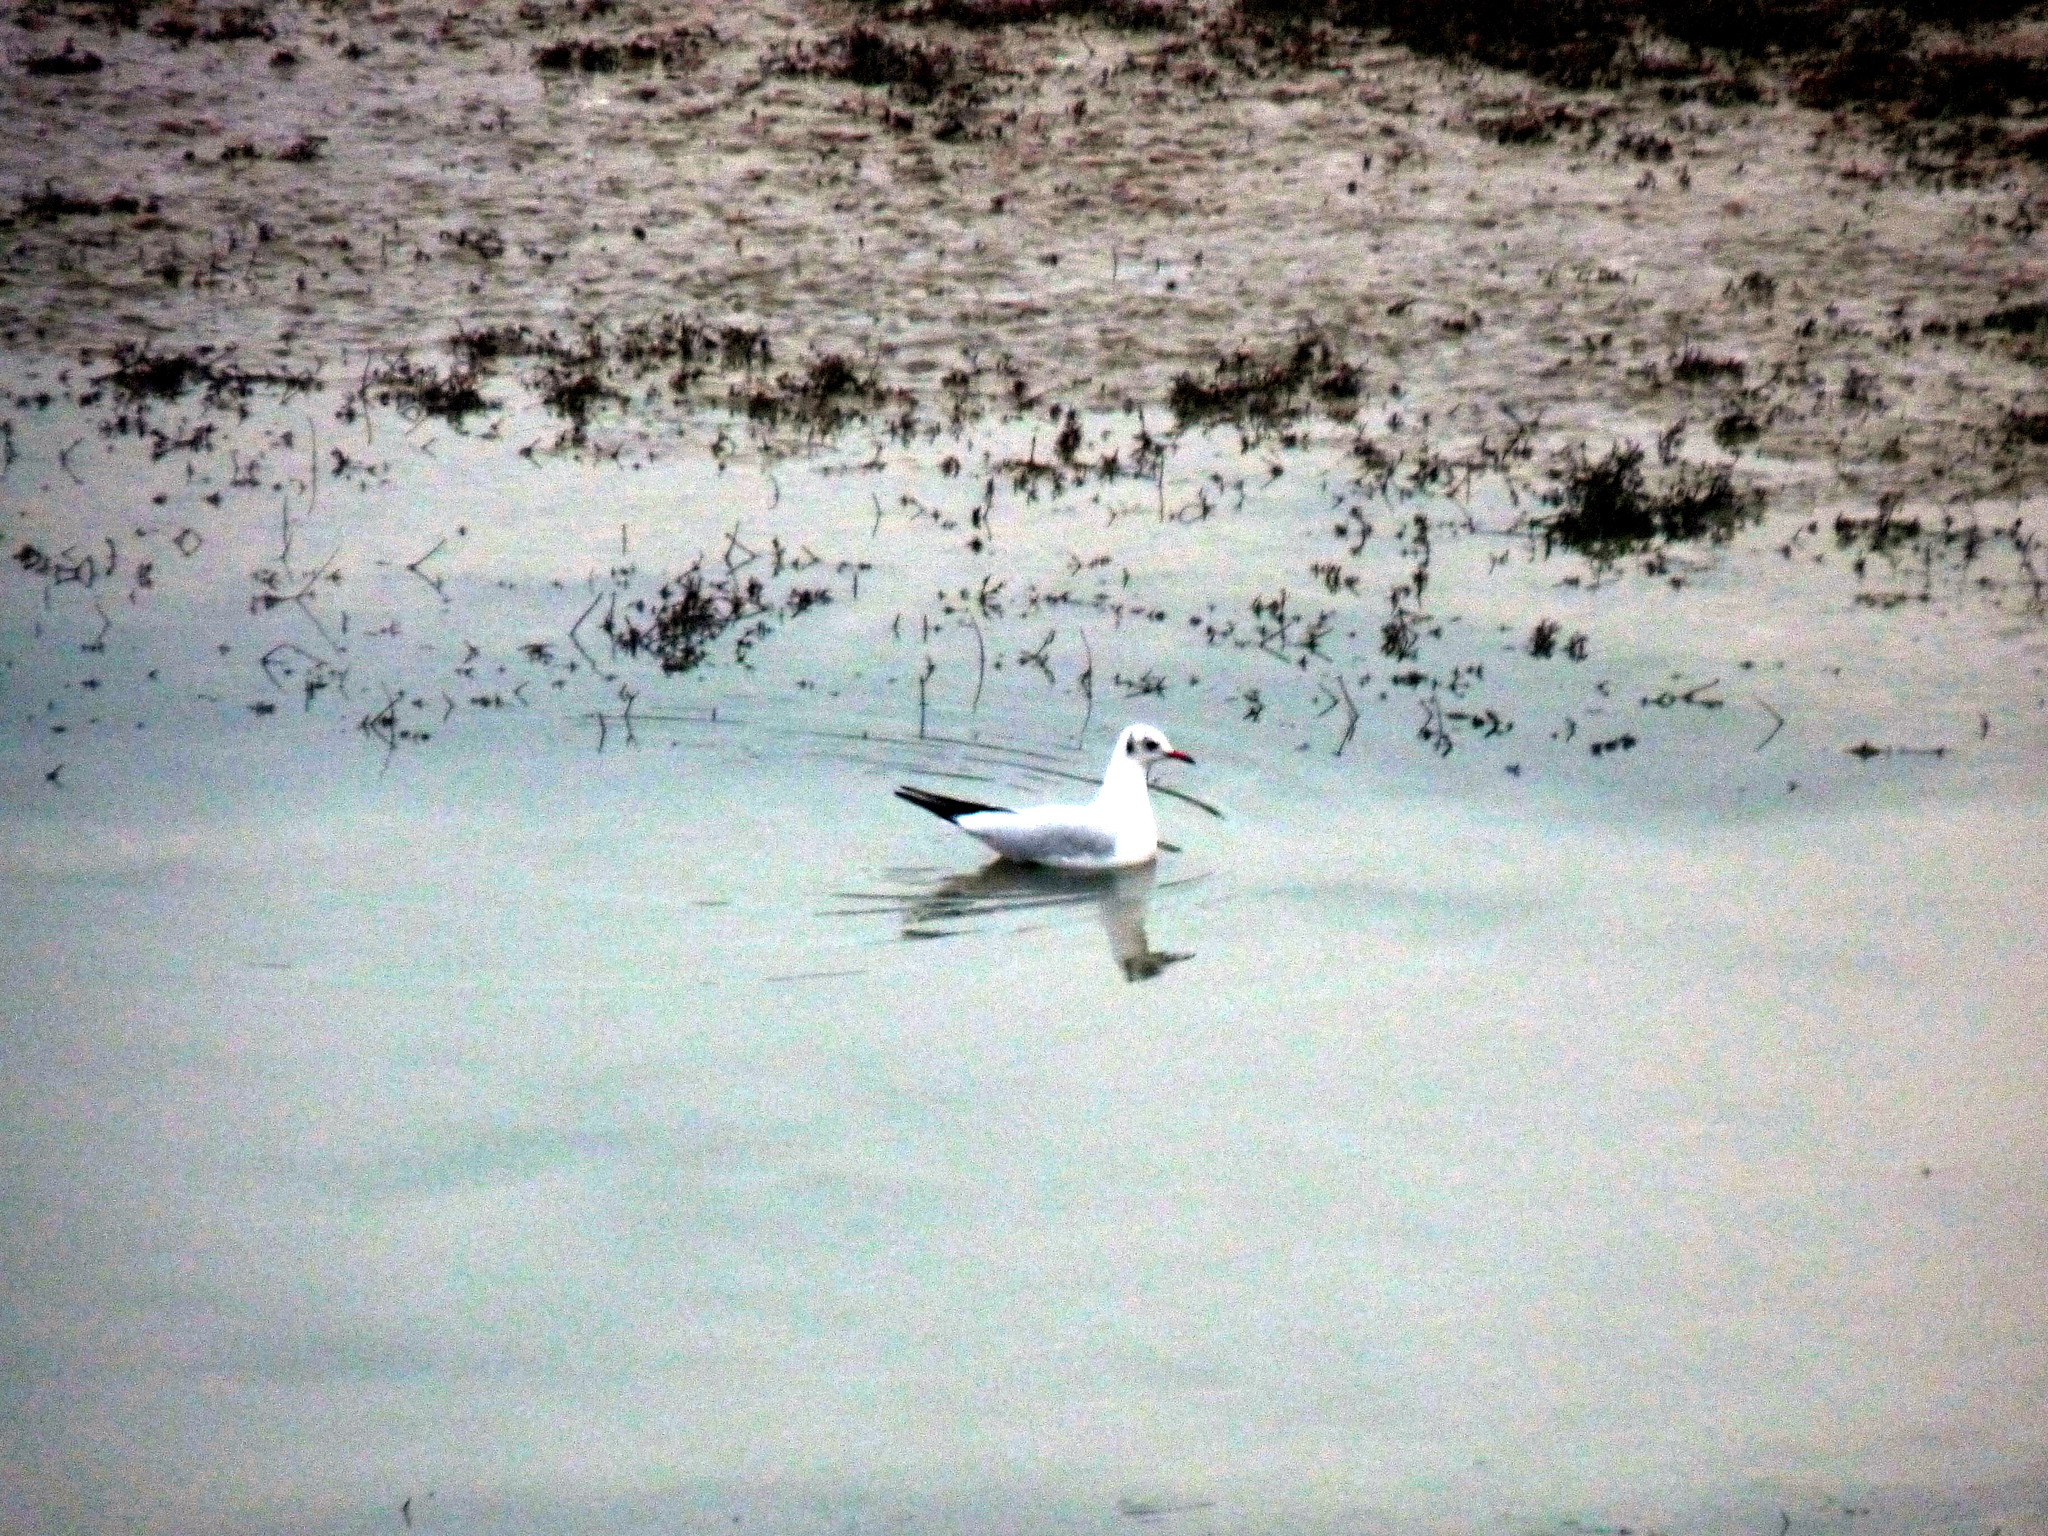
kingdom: Animalia
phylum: Chordata
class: Aves
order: Charadriiformes
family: Laridae
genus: Chroicocephalus
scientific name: Chroicocephalus ridibundus
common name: Black-headed gull
